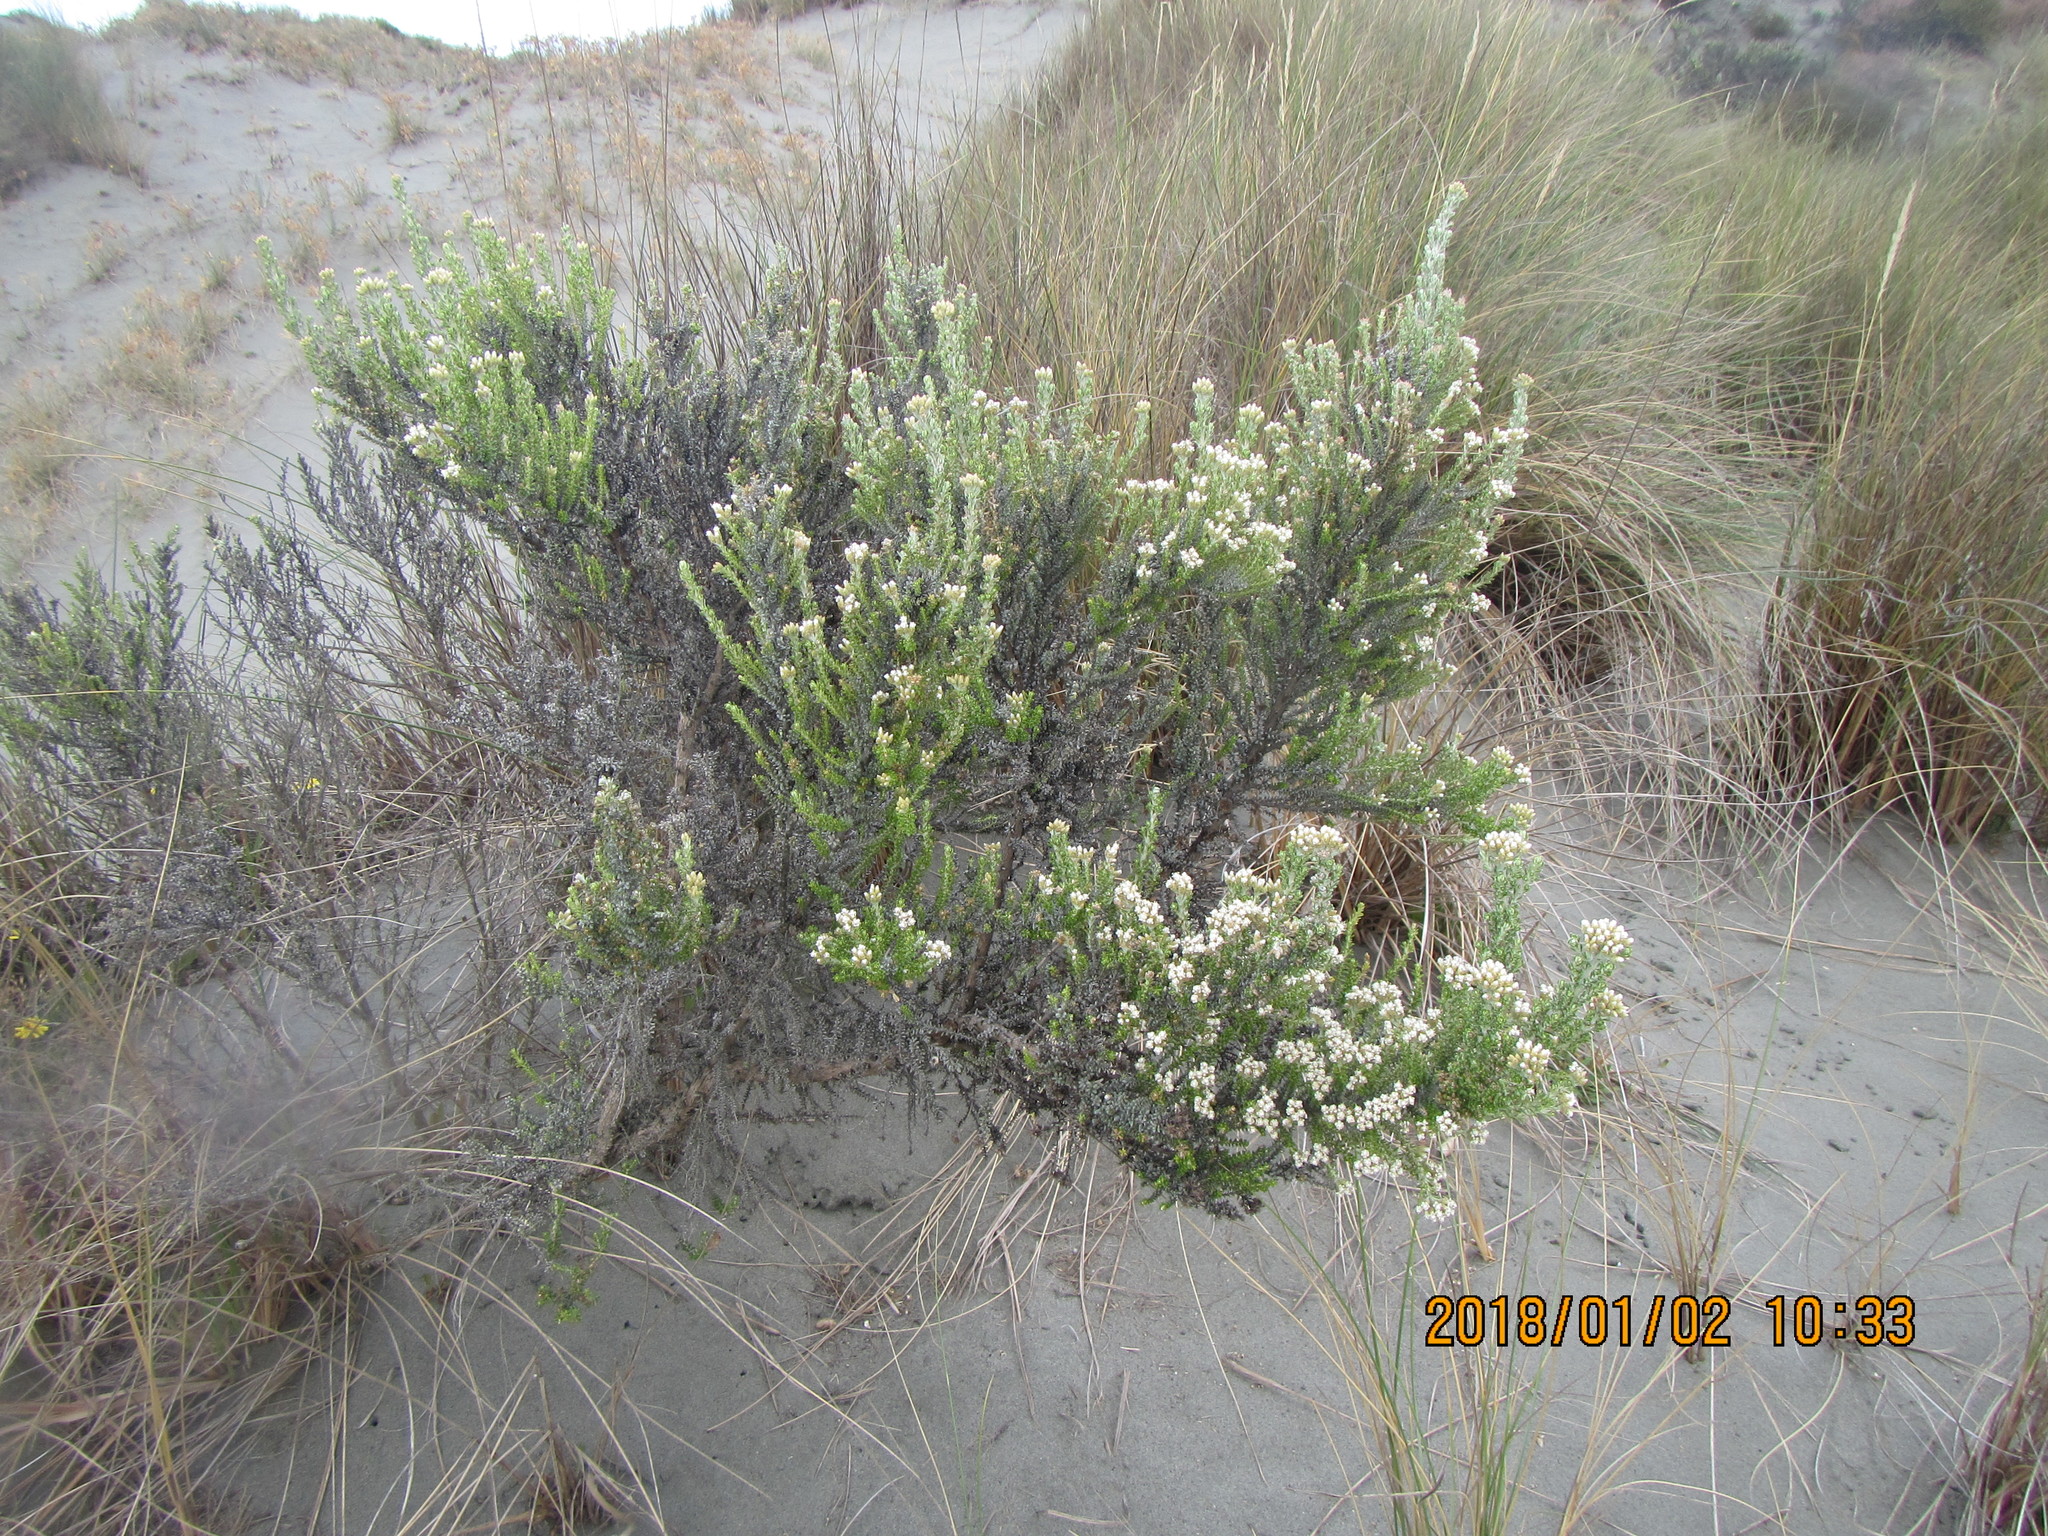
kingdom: Plantae
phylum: Tracheophyta
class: Magnoliopsida
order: Asterales
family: Asteraceae
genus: Ozothamnus
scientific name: Ozothamnus leptophyllus
